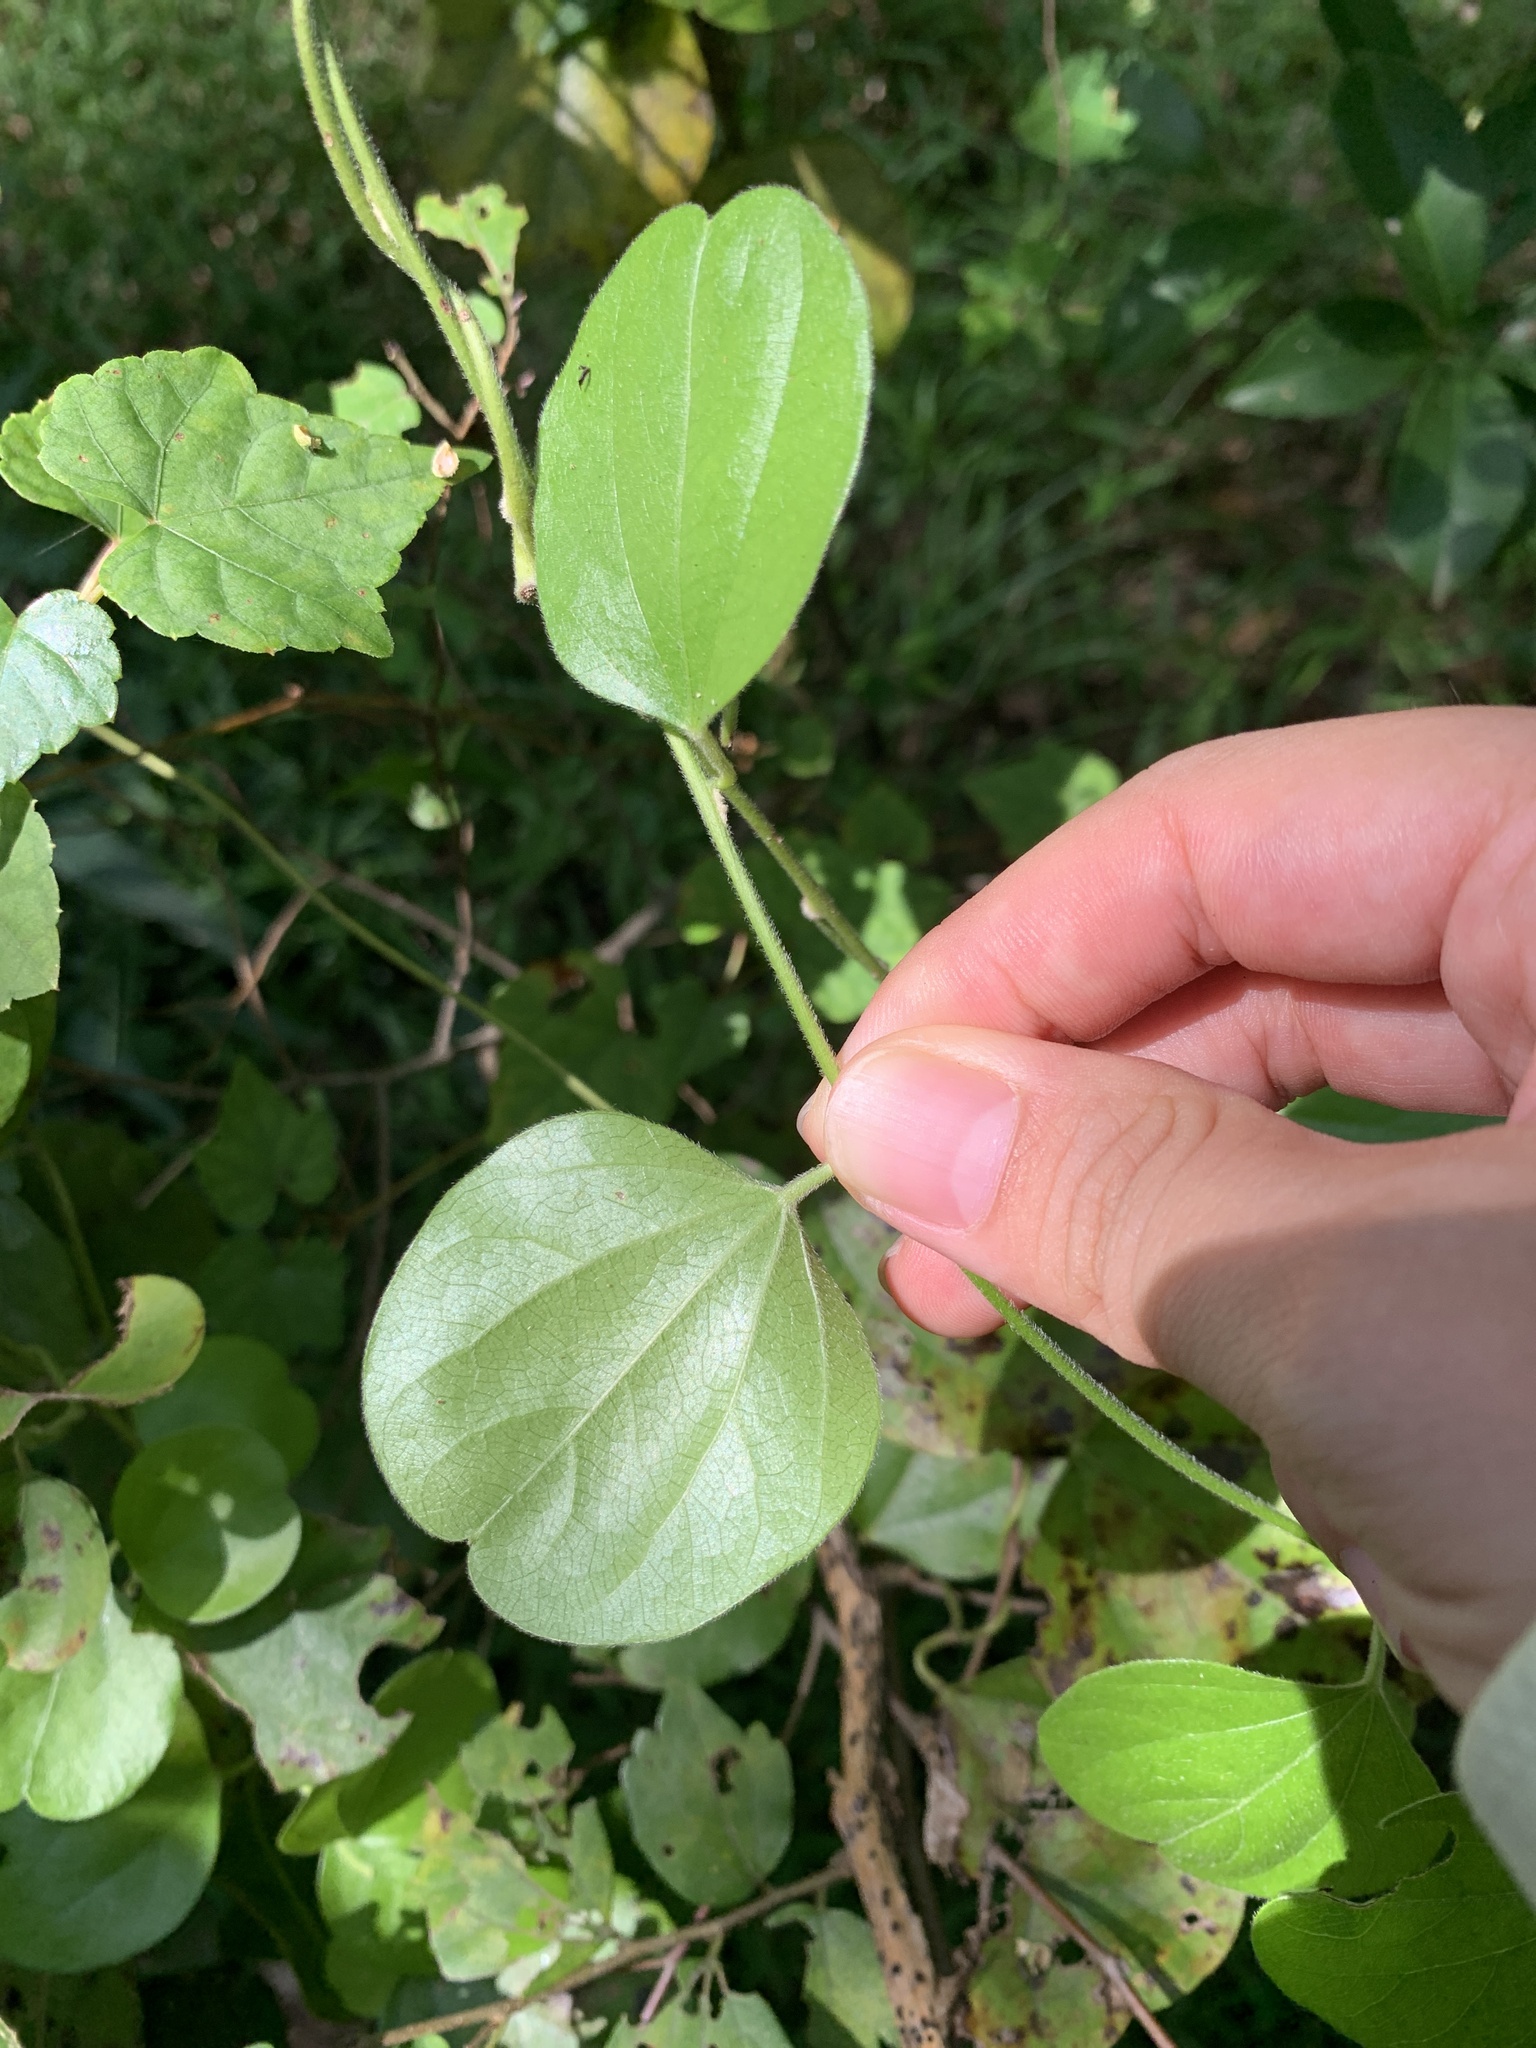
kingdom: Plantae
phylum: Tracheophyta
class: Magnoliopsida
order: Ranunculales
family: Menispermaceae
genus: Cocculus
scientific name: Cocculus orbiculatus
